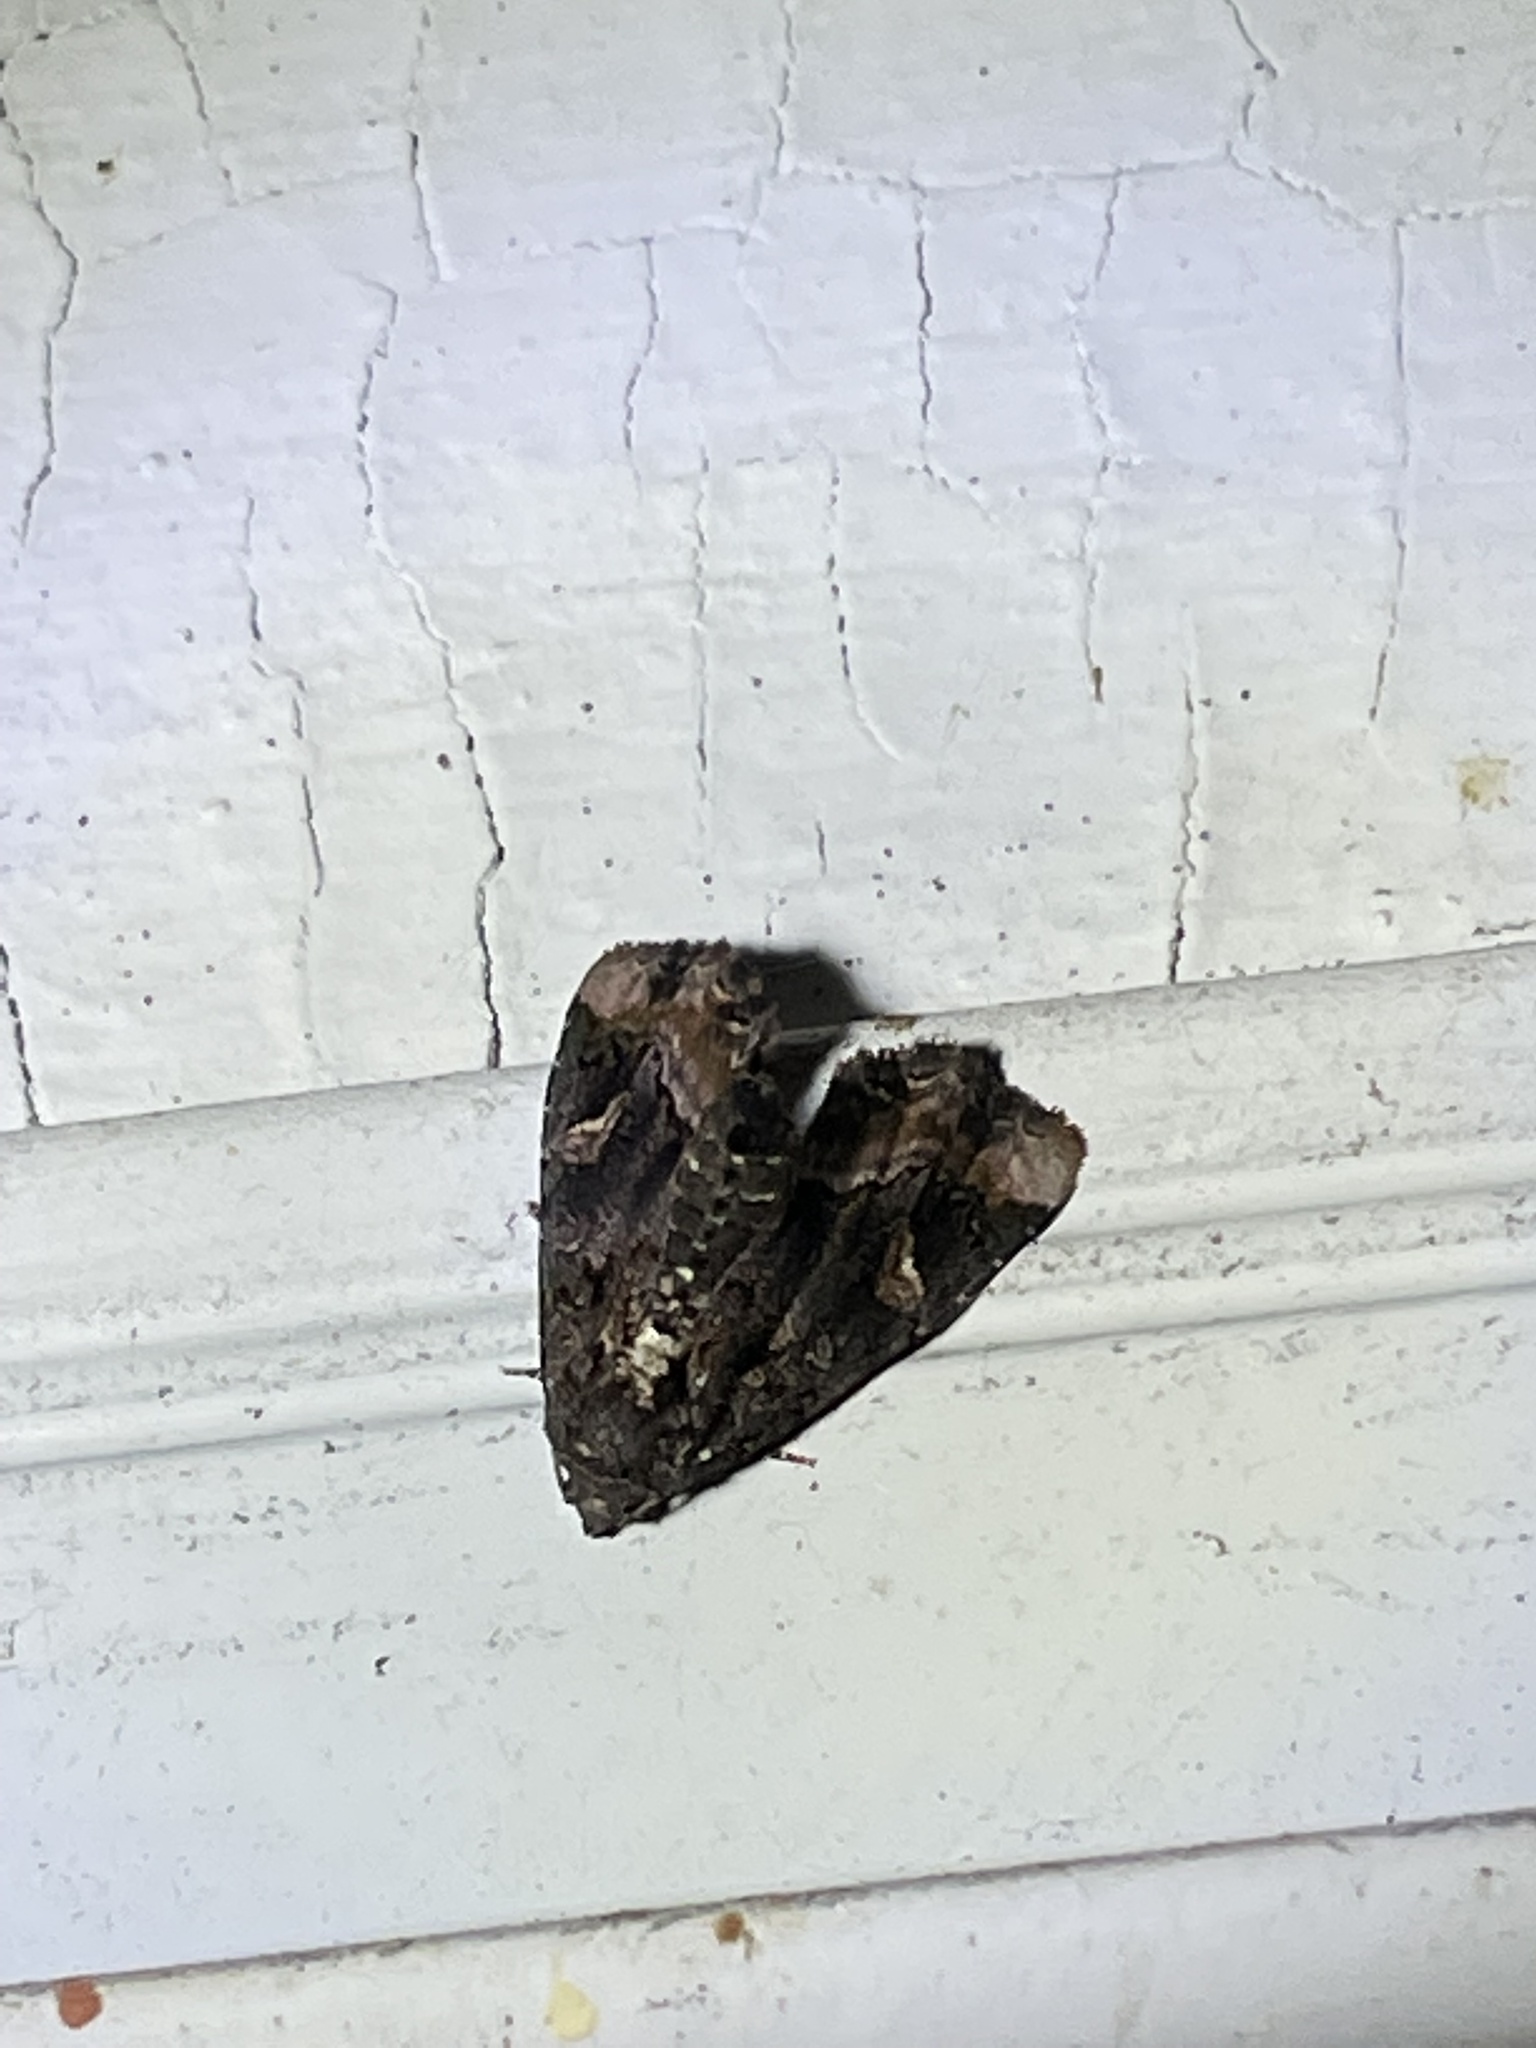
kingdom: Animalia
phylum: Arthropoda
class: Insecta
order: Lepidoptera
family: Noctuidae
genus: Homophoberia
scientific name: Homophoberia apicosa
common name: Black wedge-spot
